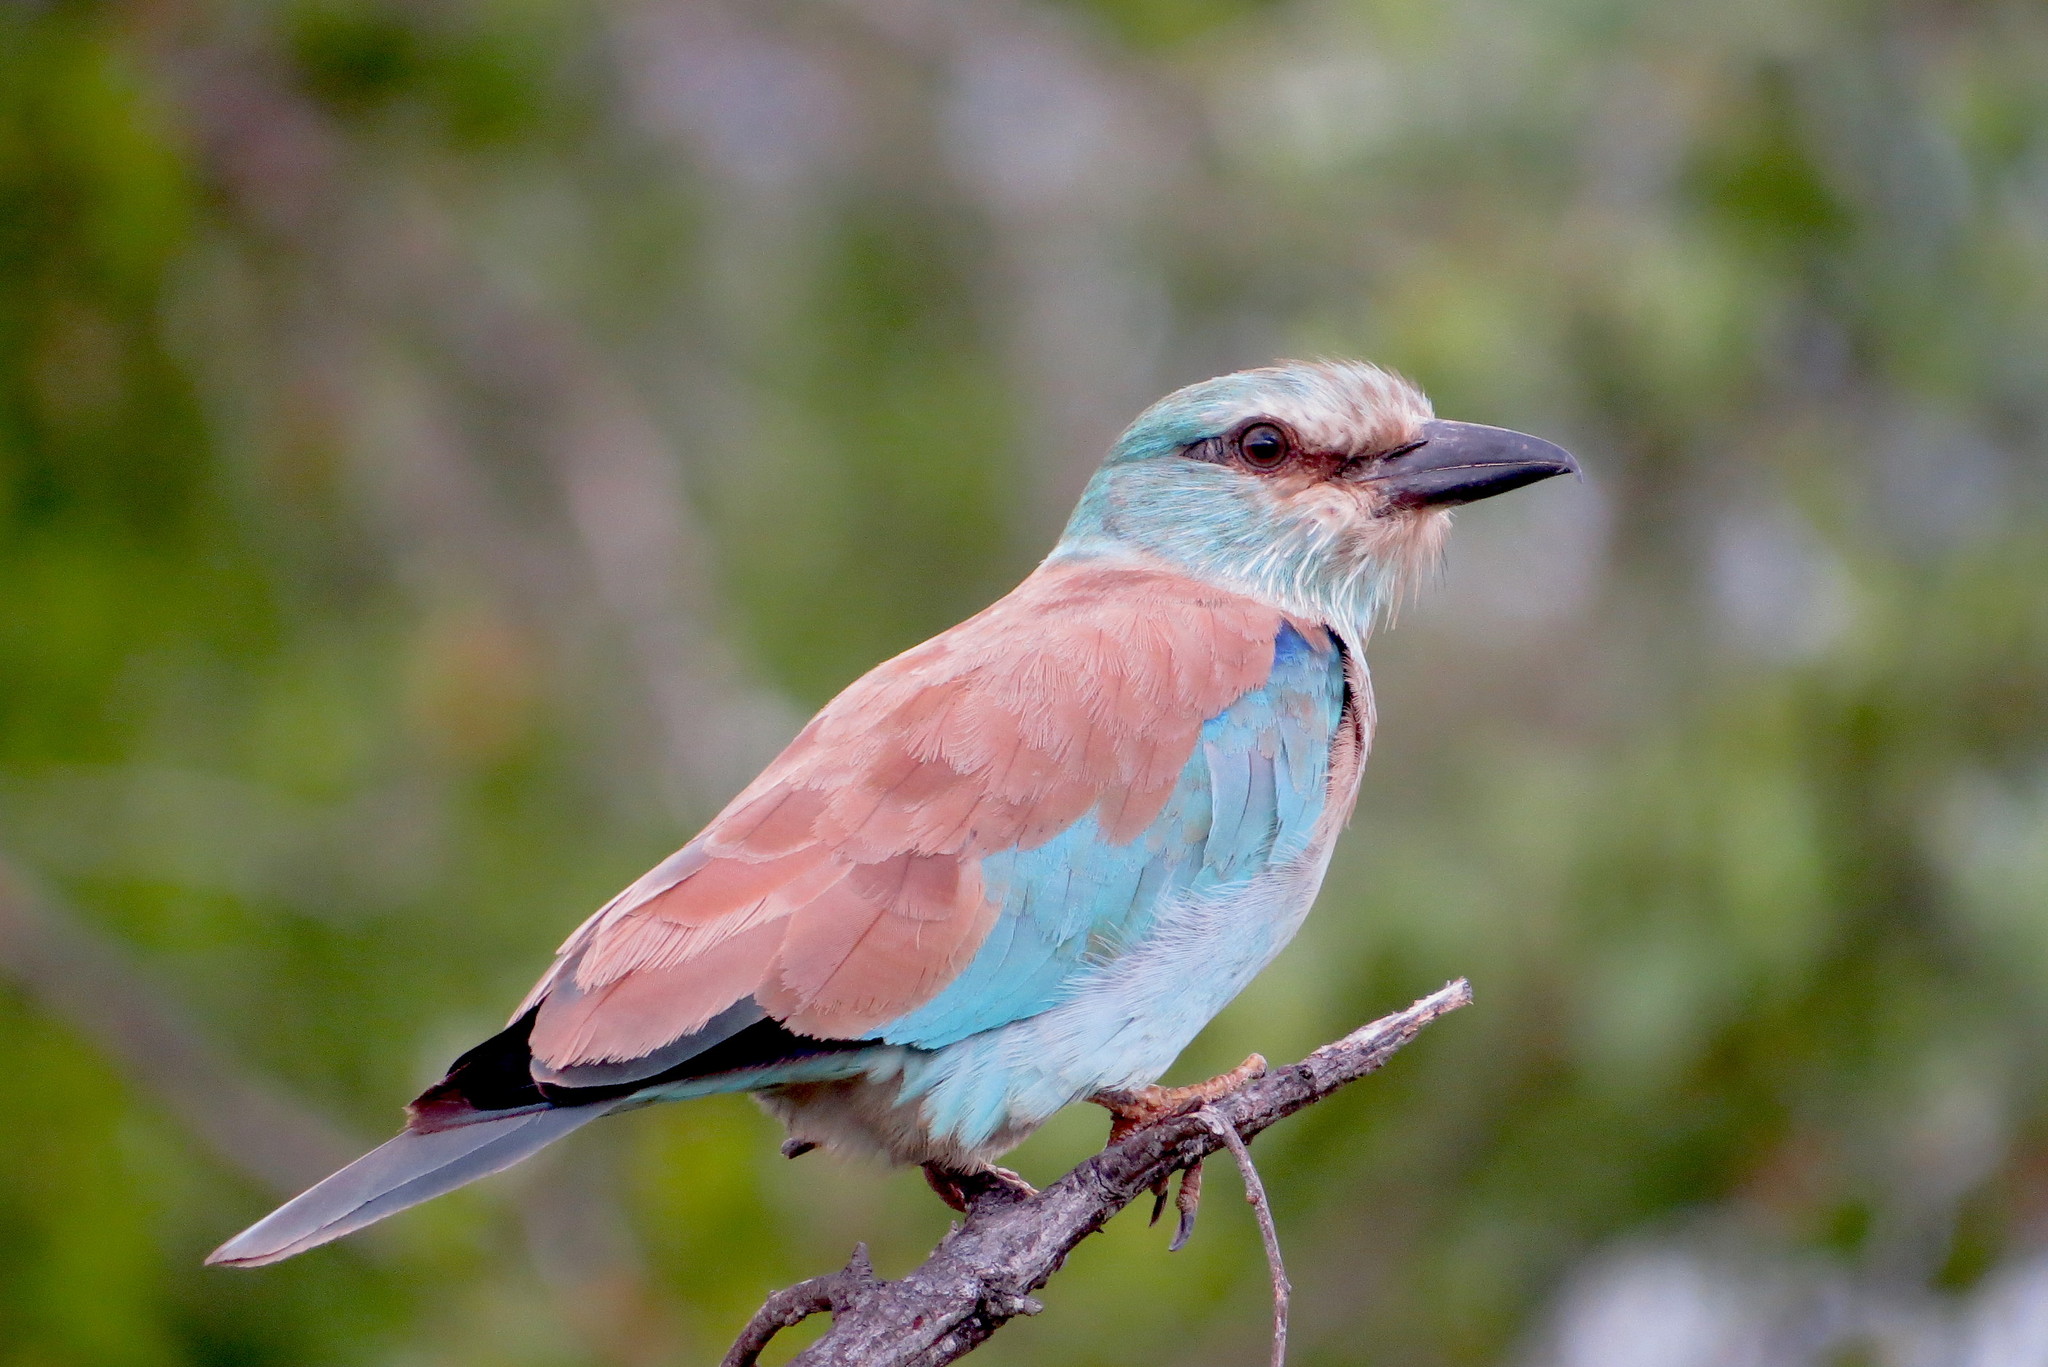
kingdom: Animalia
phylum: Chordata
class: Aves
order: Coraciiformes
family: Coraciidae
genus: Coracias
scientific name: Coracias garrulus
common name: European roller
